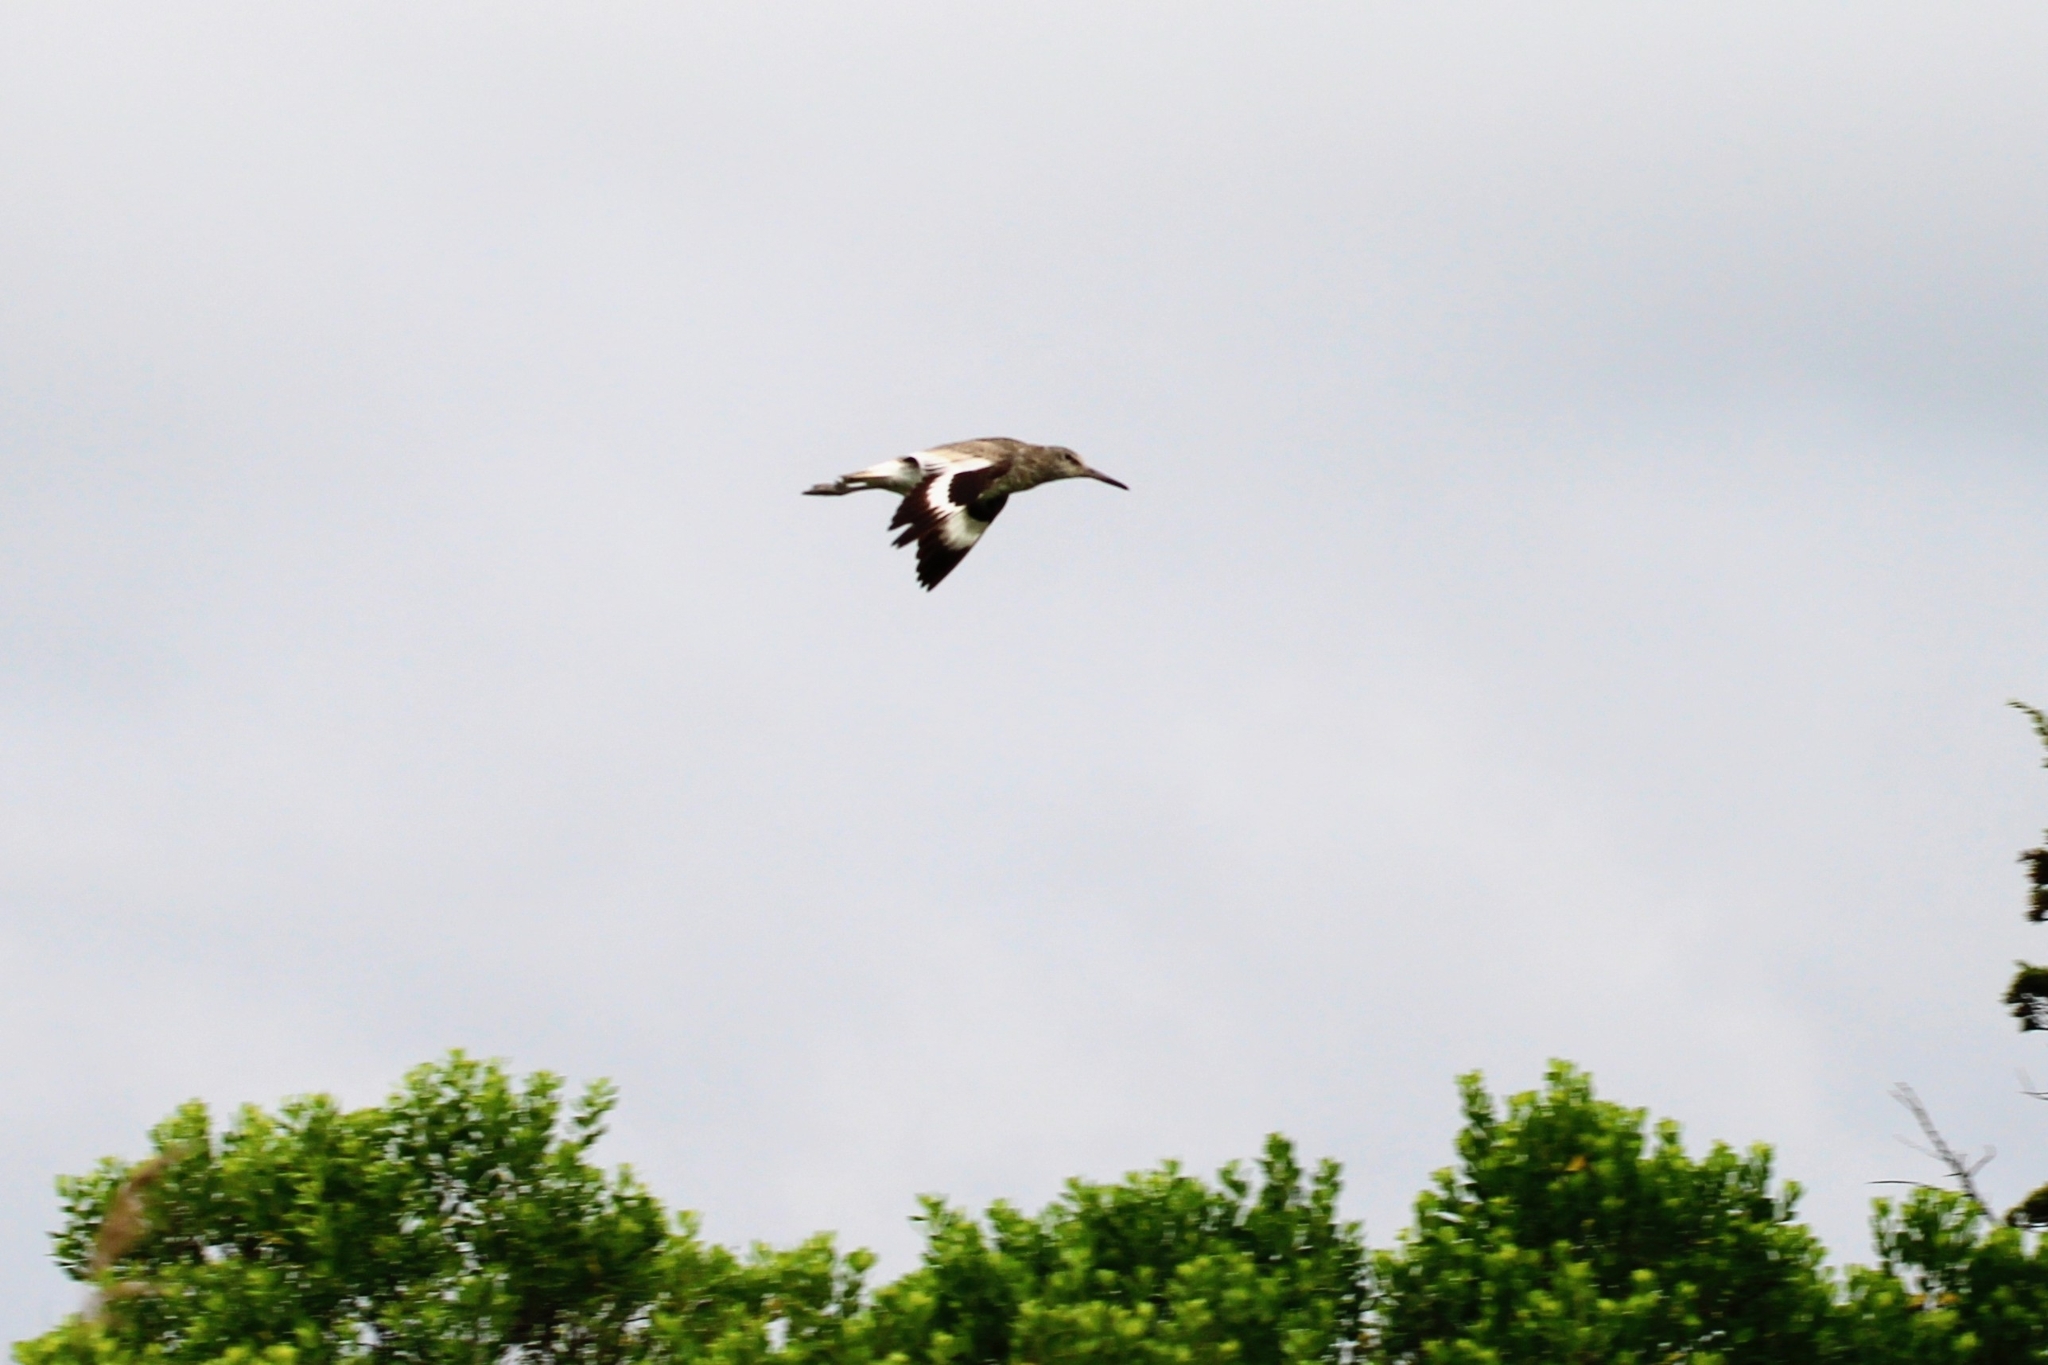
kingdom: Animalia
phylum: Chordata
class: Aves
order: Charadriiformes
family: Scolopacidae
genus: Tringa
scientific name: Tringa semipalmata
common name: Willet
